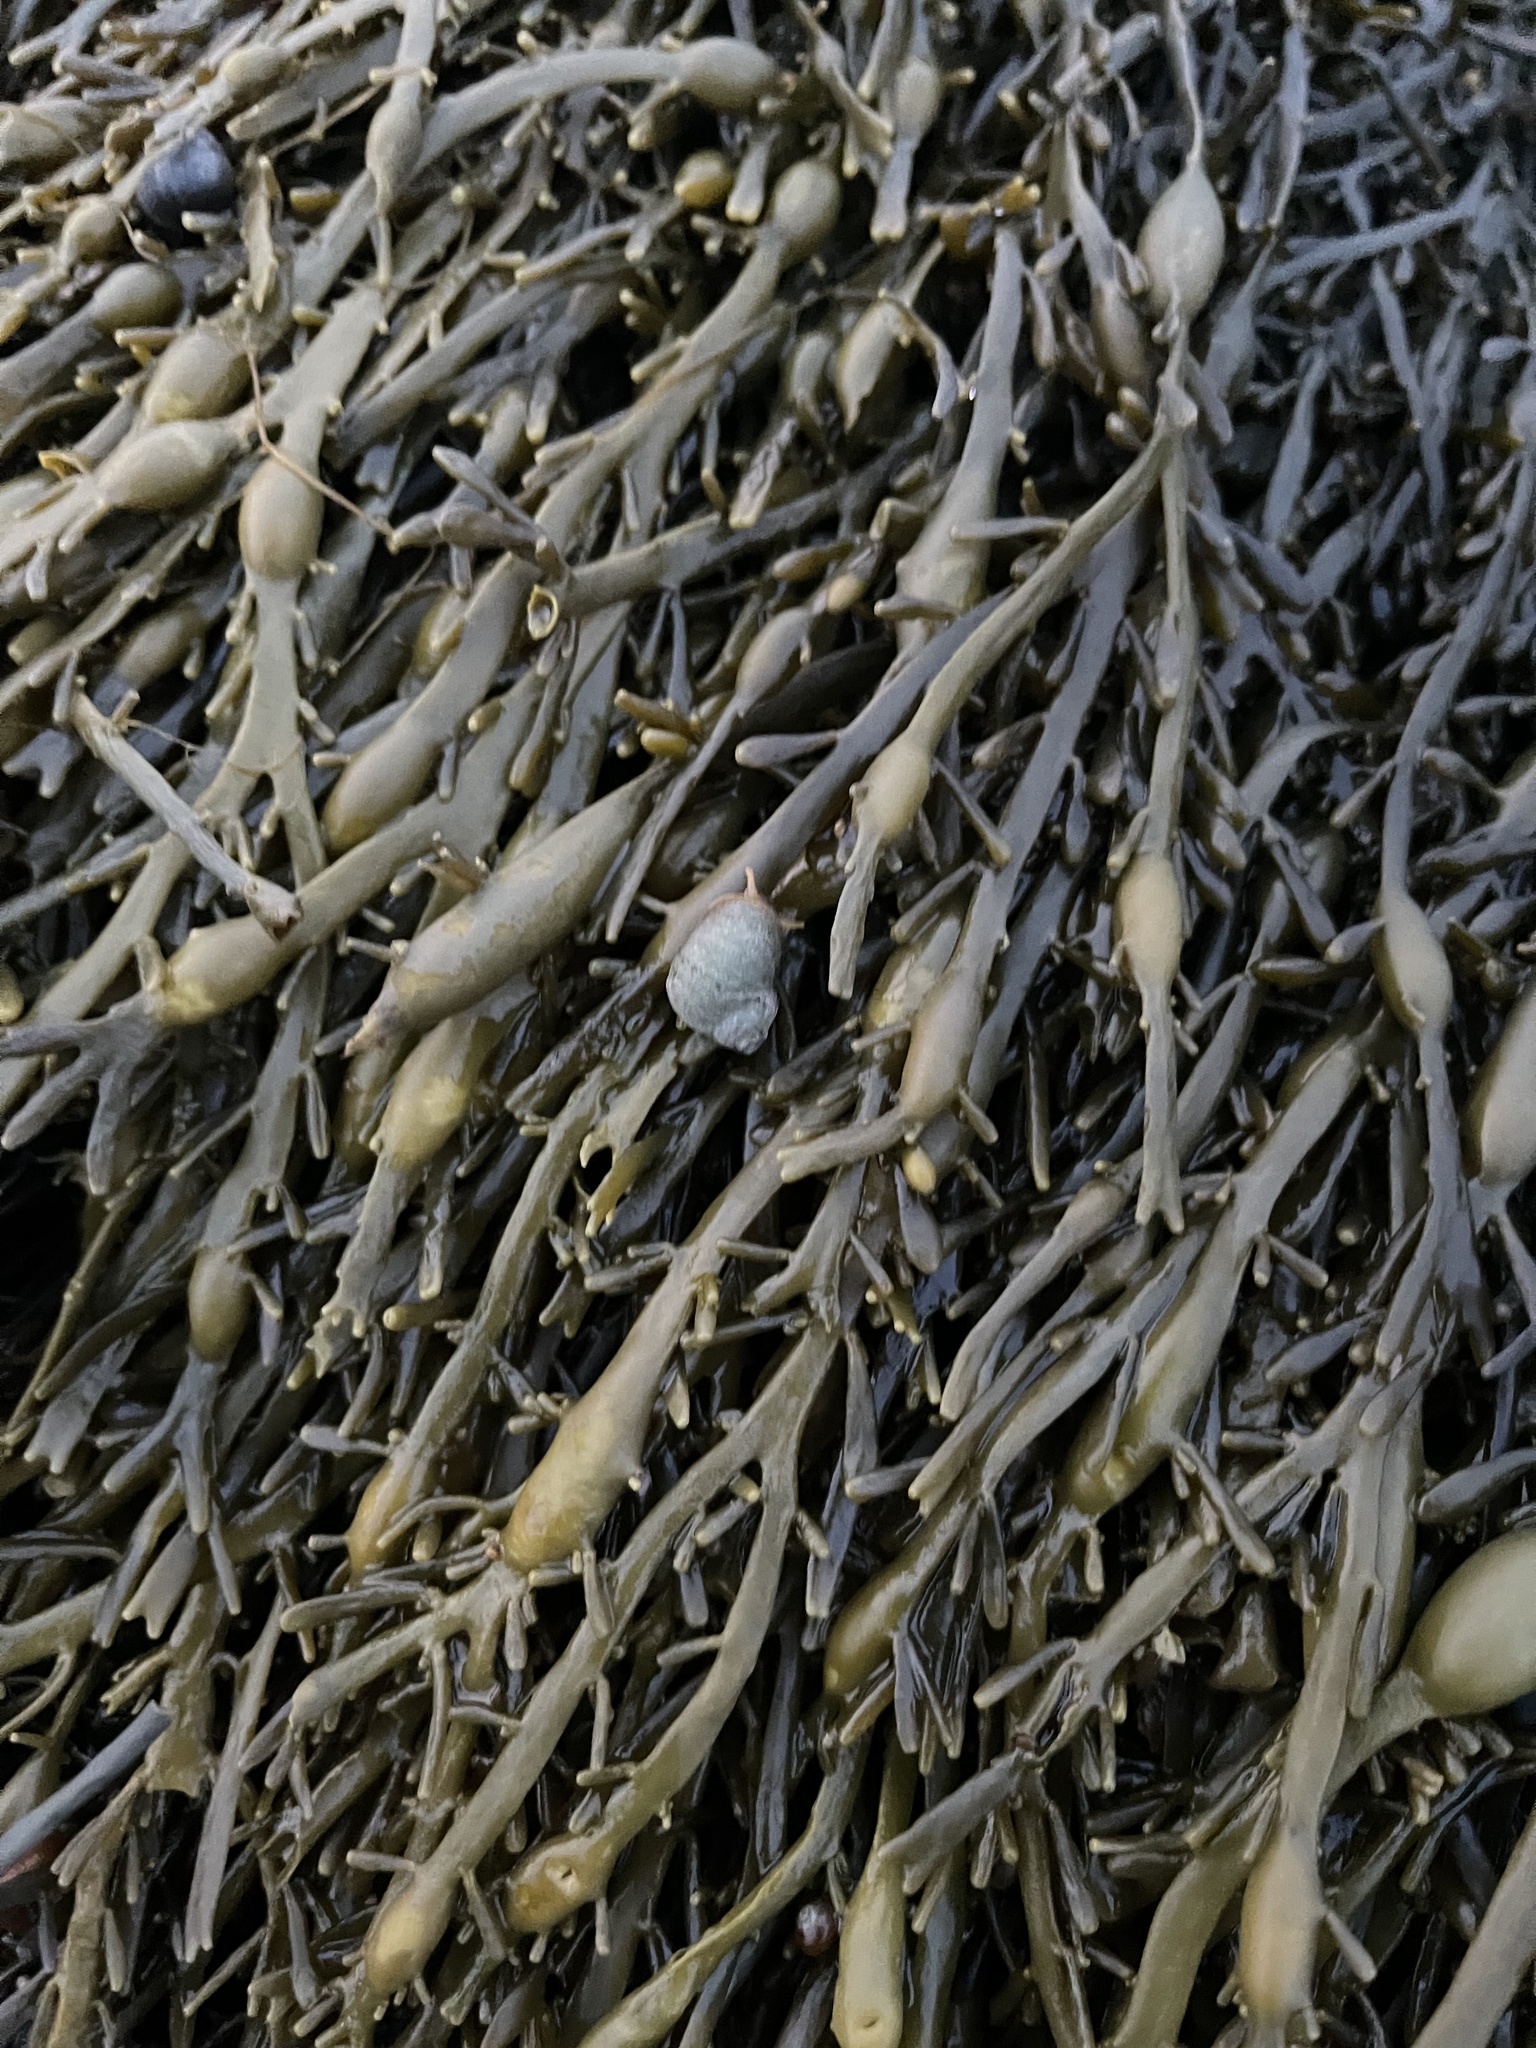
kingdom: Chromista
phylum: Ochrophyta
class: Phaeophyceae
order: Fucales
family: Fucaceae
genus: Ascophyllum
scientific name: Ascophyllum nodosum
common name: Knotted wrack
